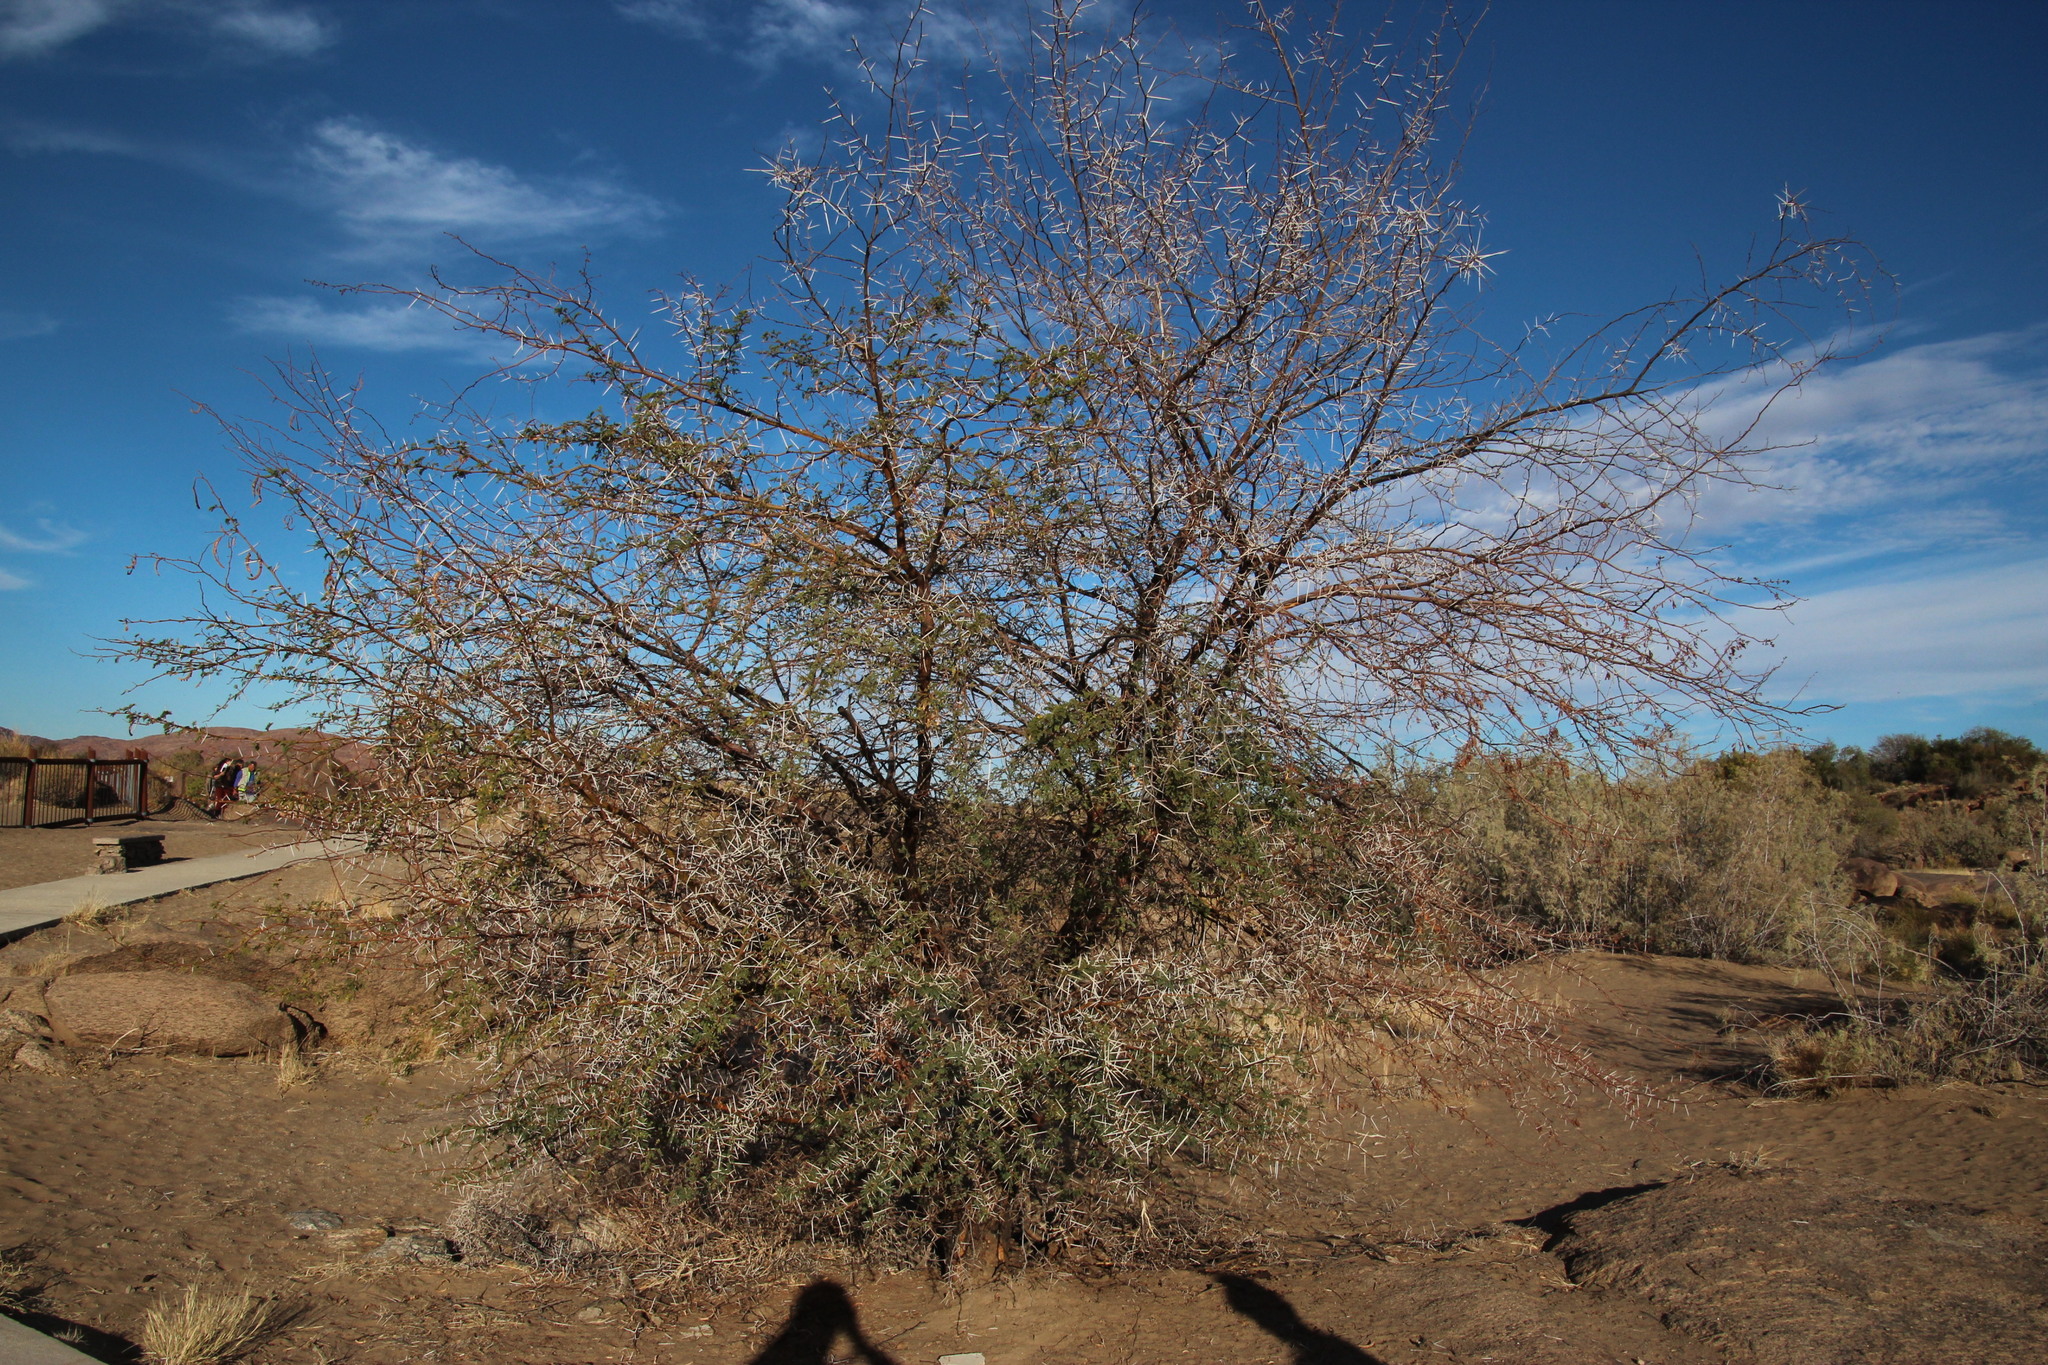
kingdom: Plantae
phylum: Tracheophyta
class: Magnoliopsida
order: Fabales
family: Fabaceae
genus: Vachellia
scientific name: Vachellia karroo
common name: Sweet thorn
